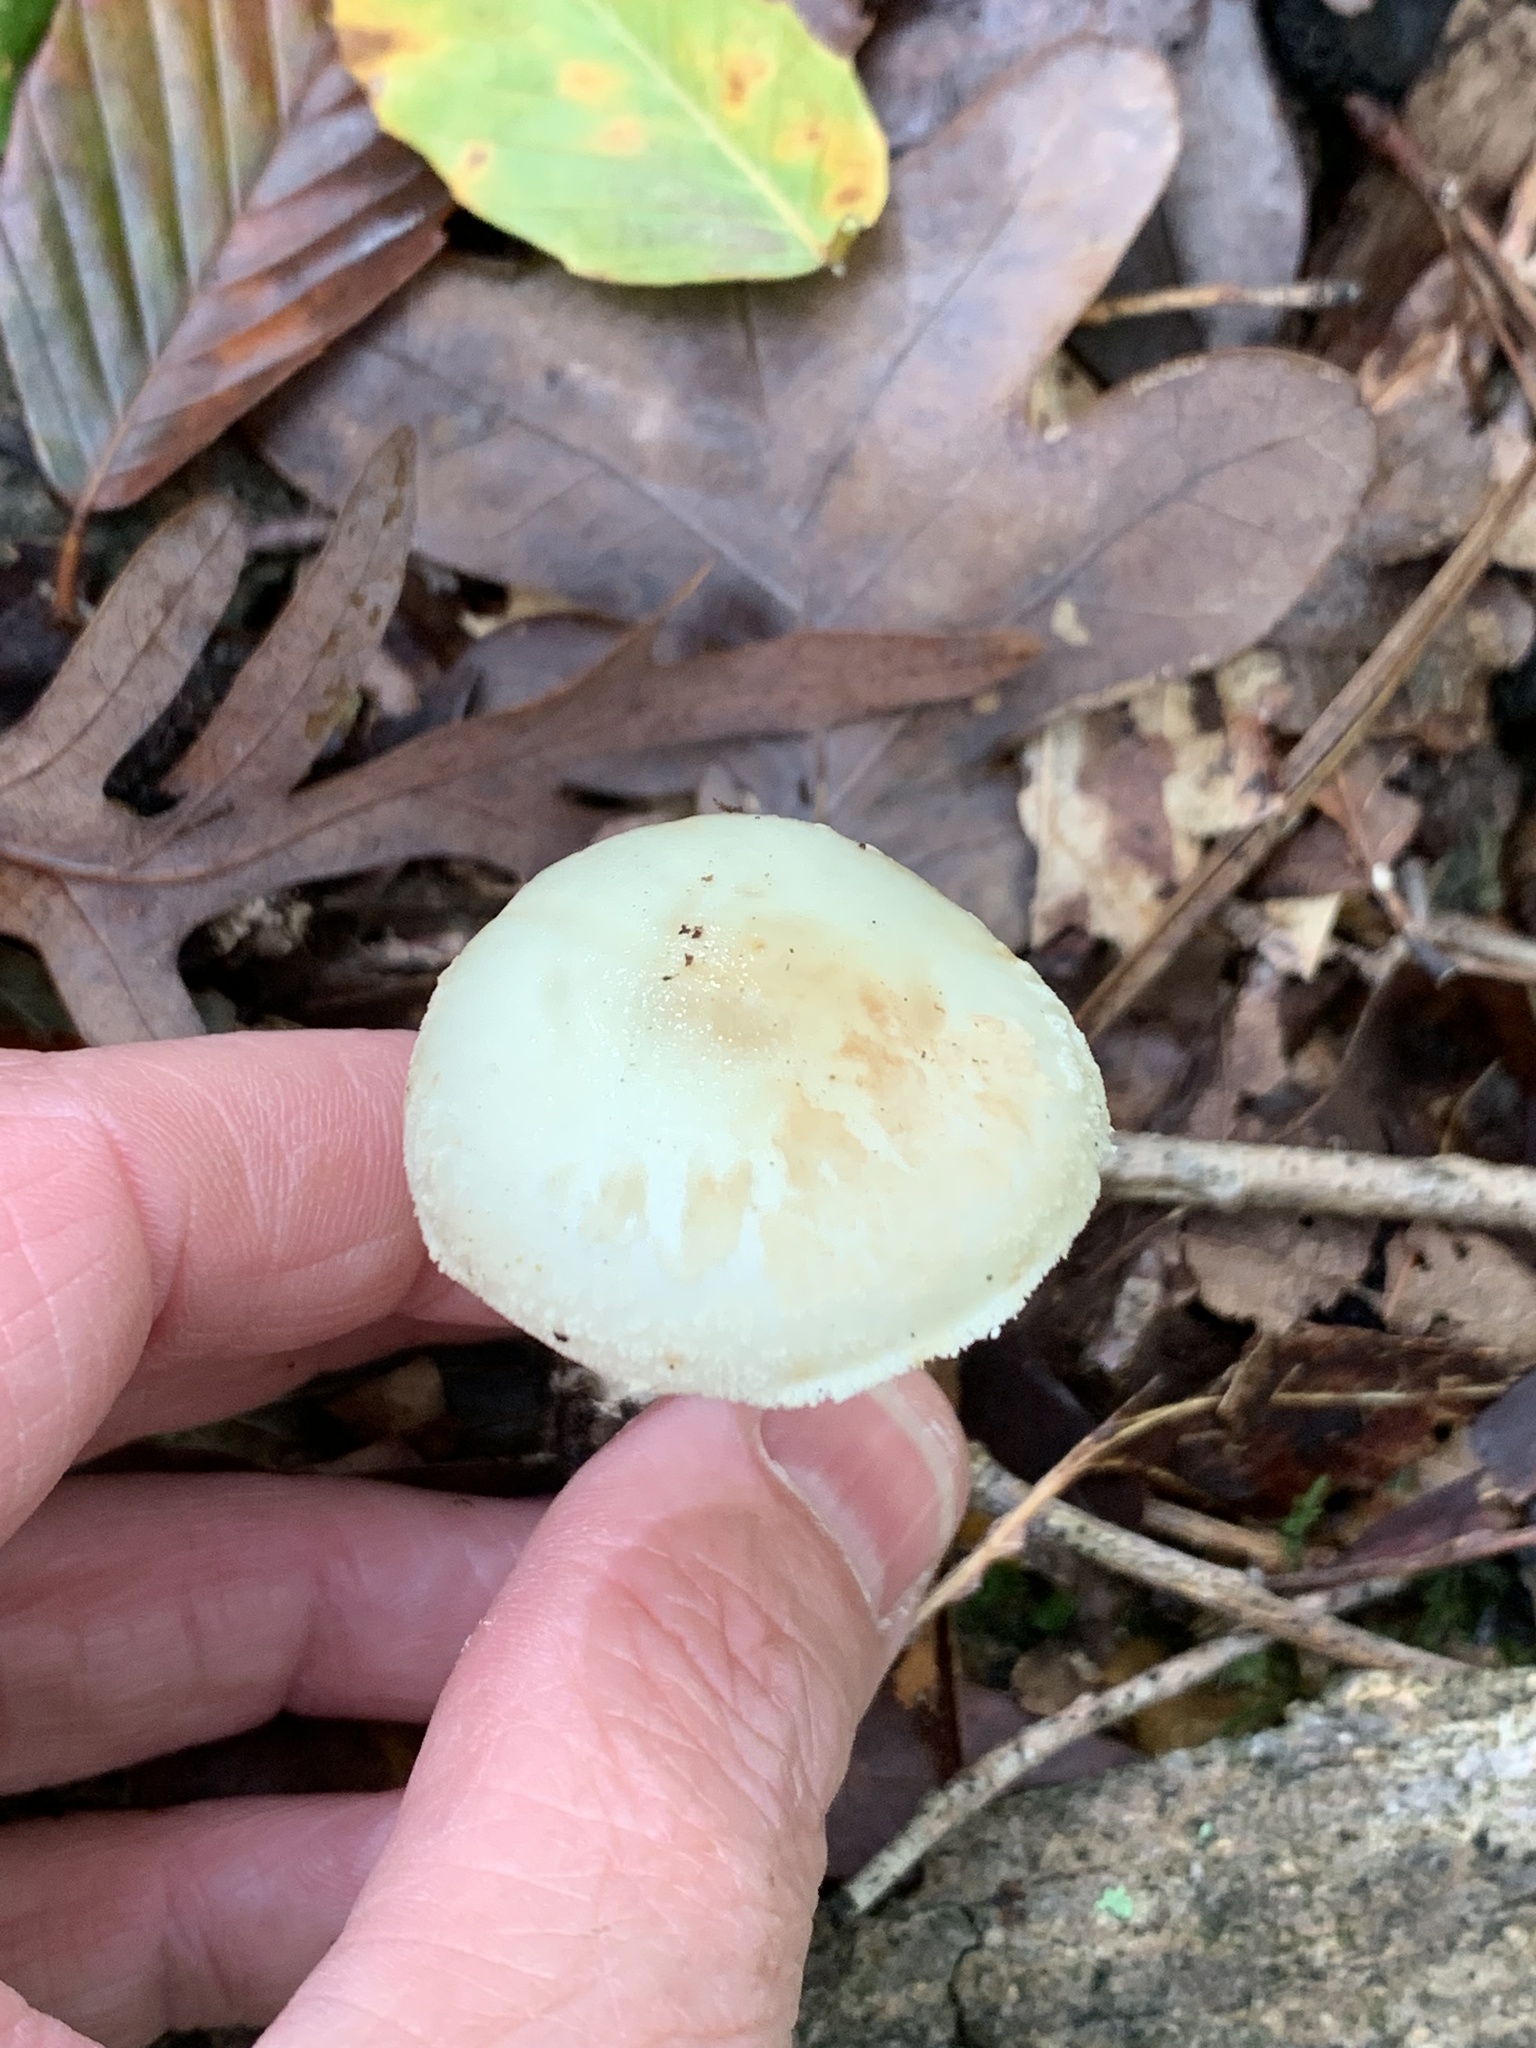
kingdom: Fungi
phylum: Basidiomycota
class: Agaricomycetes
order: Agaricales
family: Amanitaceae
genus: Amanita
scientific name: Amanita lavendula
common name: Coker's lavender staining amanita
